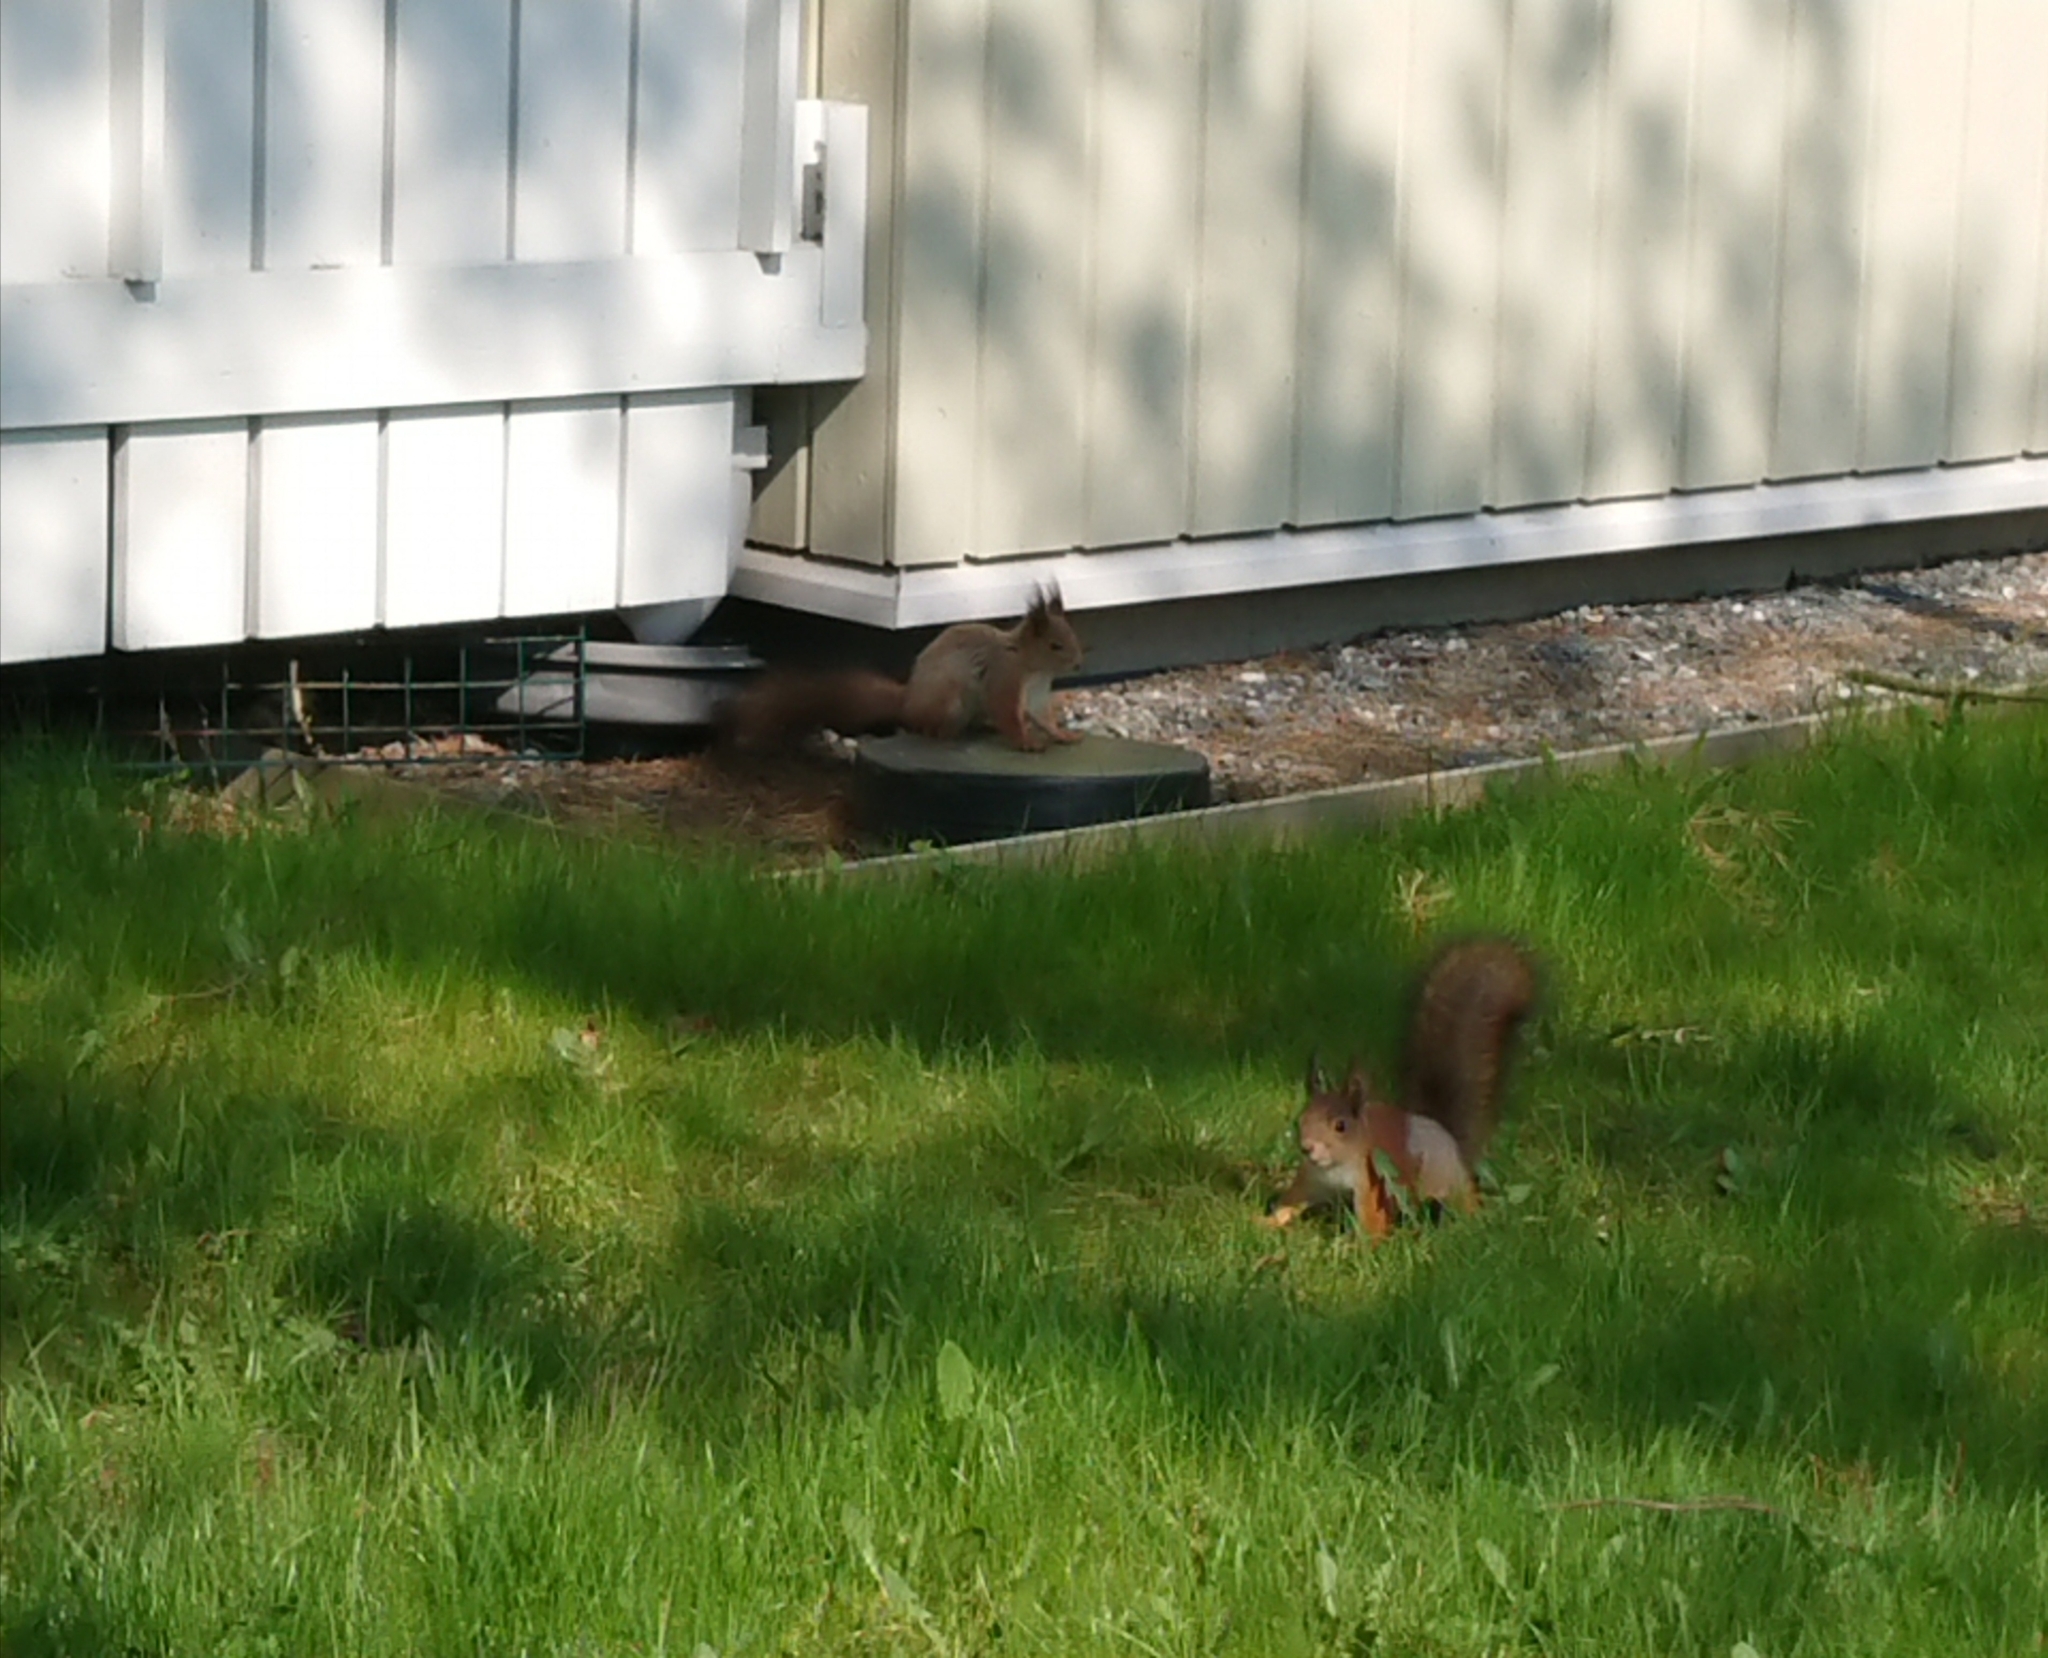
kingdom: Animalia
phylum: Chordata
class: Mammalia
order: Rodentia
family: Sciuridae
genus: Sciurus
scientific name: Sciurus vulgaris
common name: Eurasian red squirrel
